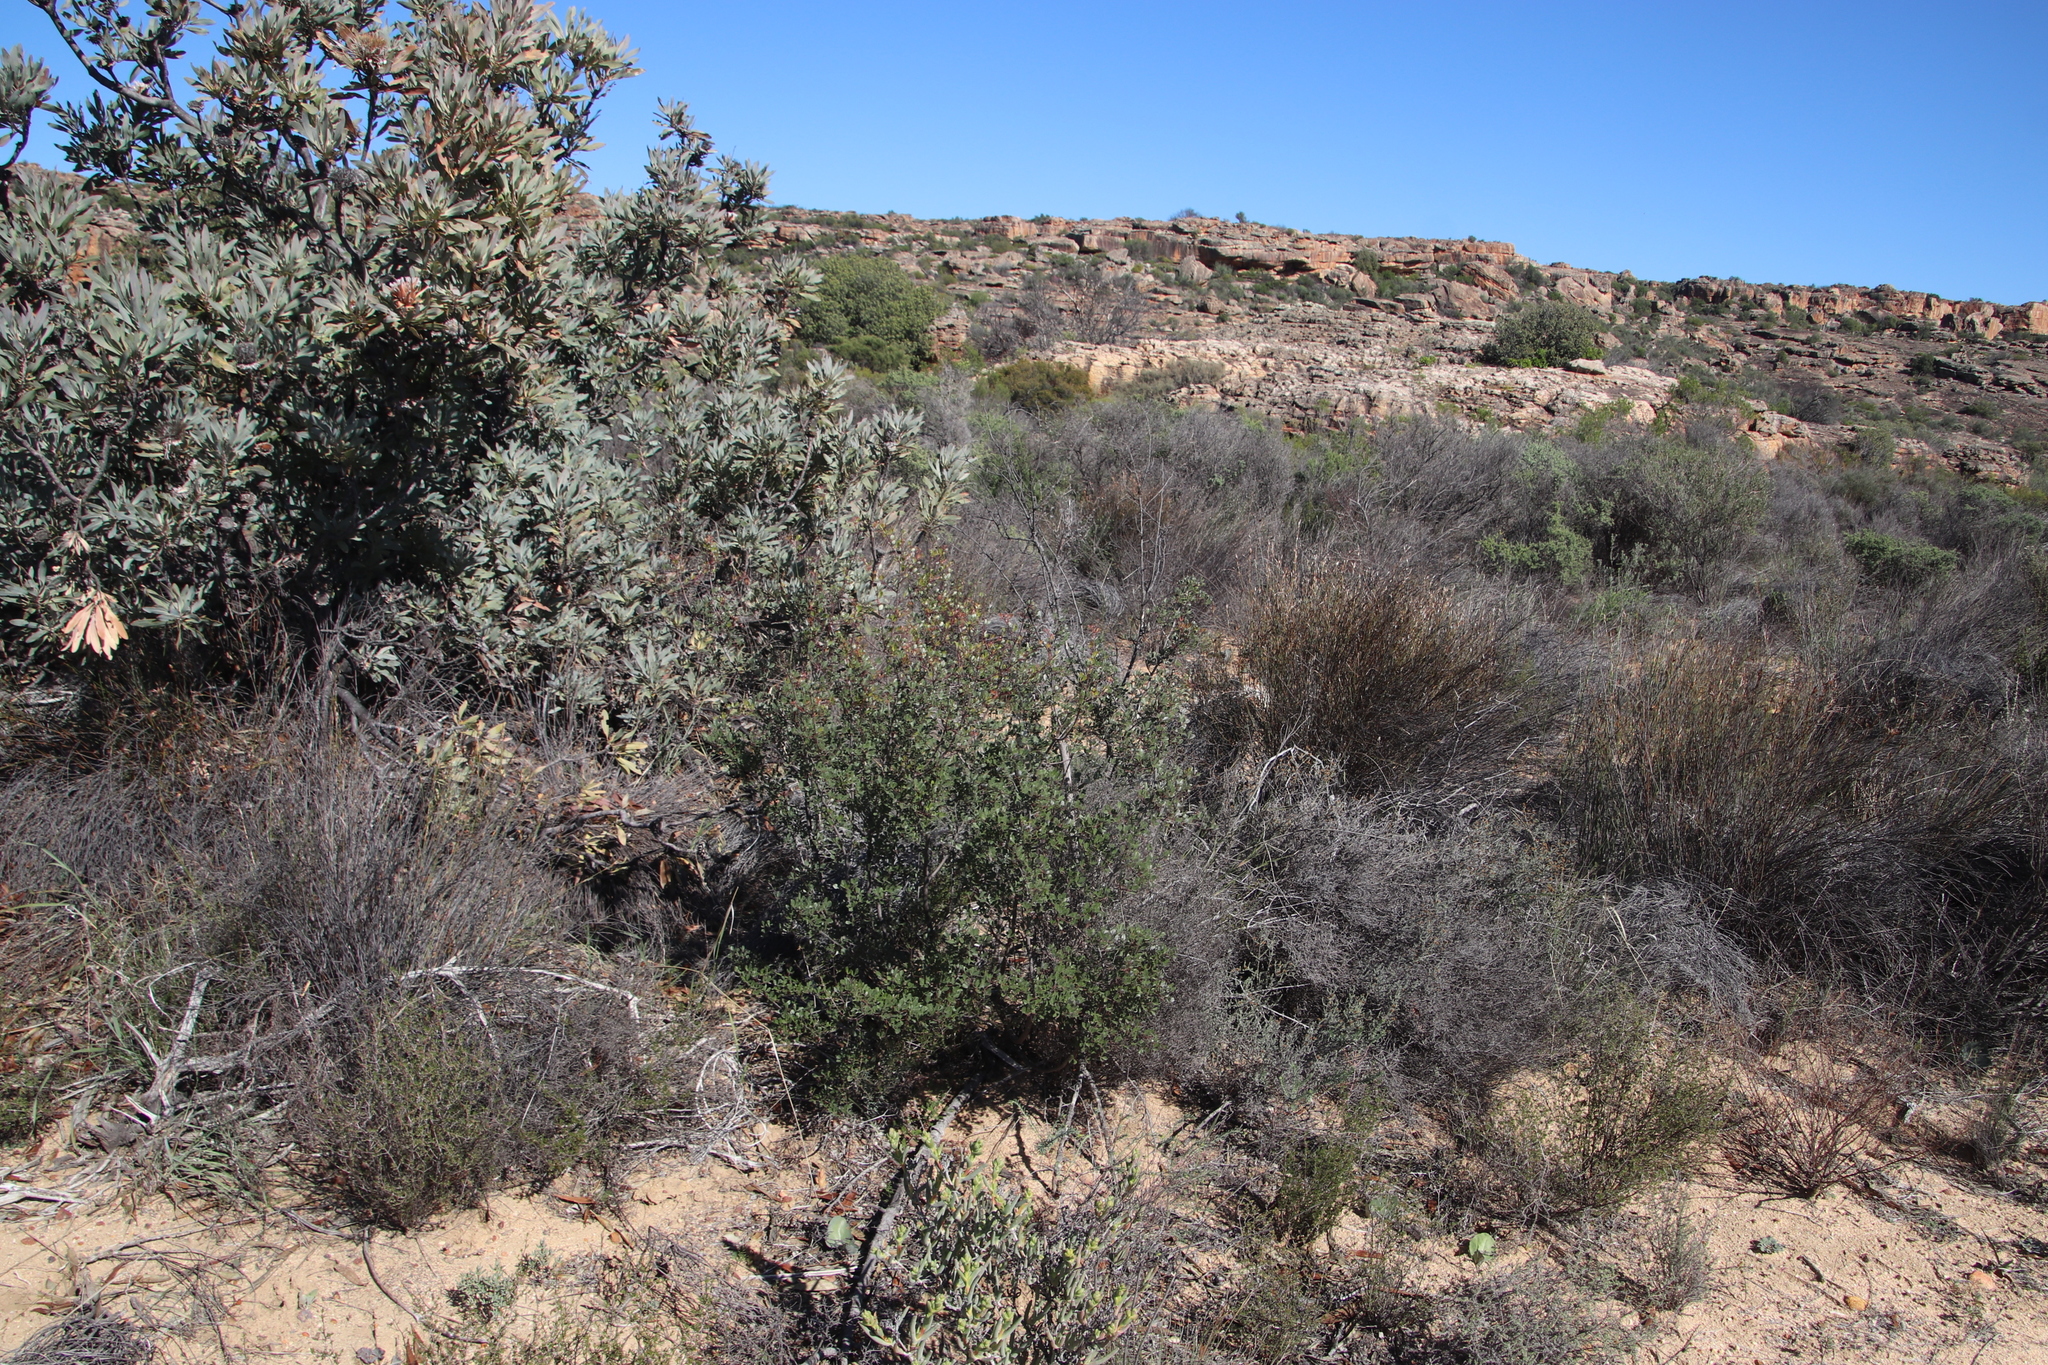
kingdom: Plantae
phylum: Tracheophyta
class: Magnoliopsida
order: Proteales
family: Proteaceae
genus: Protea
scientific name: Protea laurifolia
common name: Grey-leaf sugarbsh
